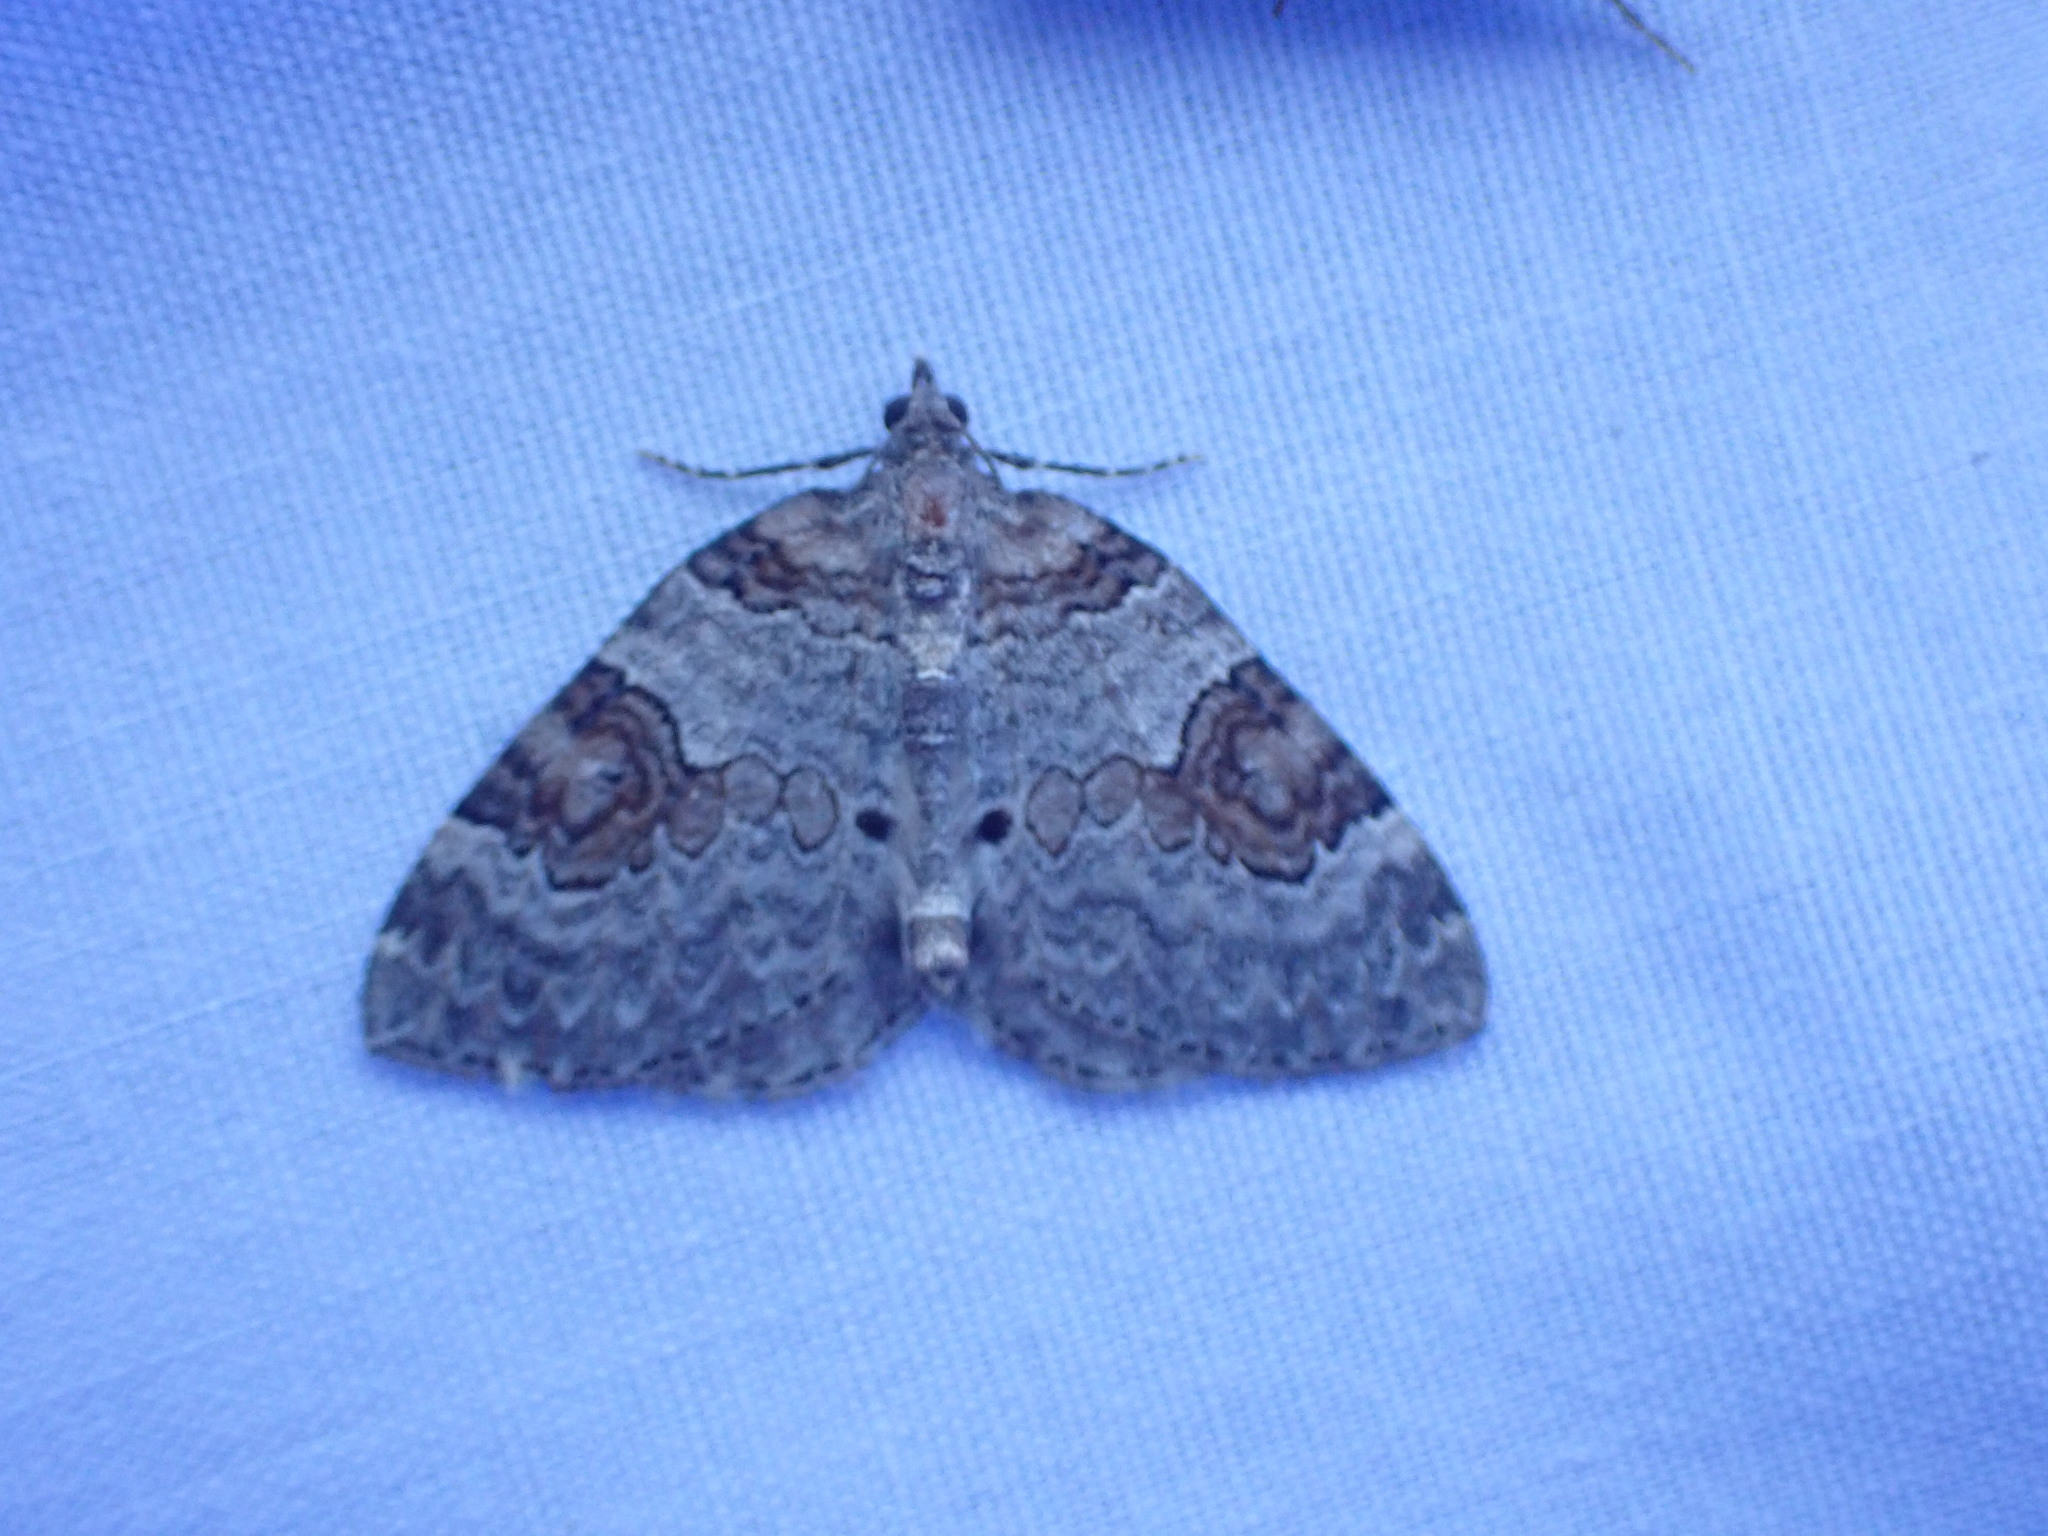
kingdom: Animalia
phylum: Arthropoda
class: Insecta
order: Lepidoptera
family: Geometridae
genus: Plemyria
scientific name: Plemyria georgii
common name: George's carpet moth
